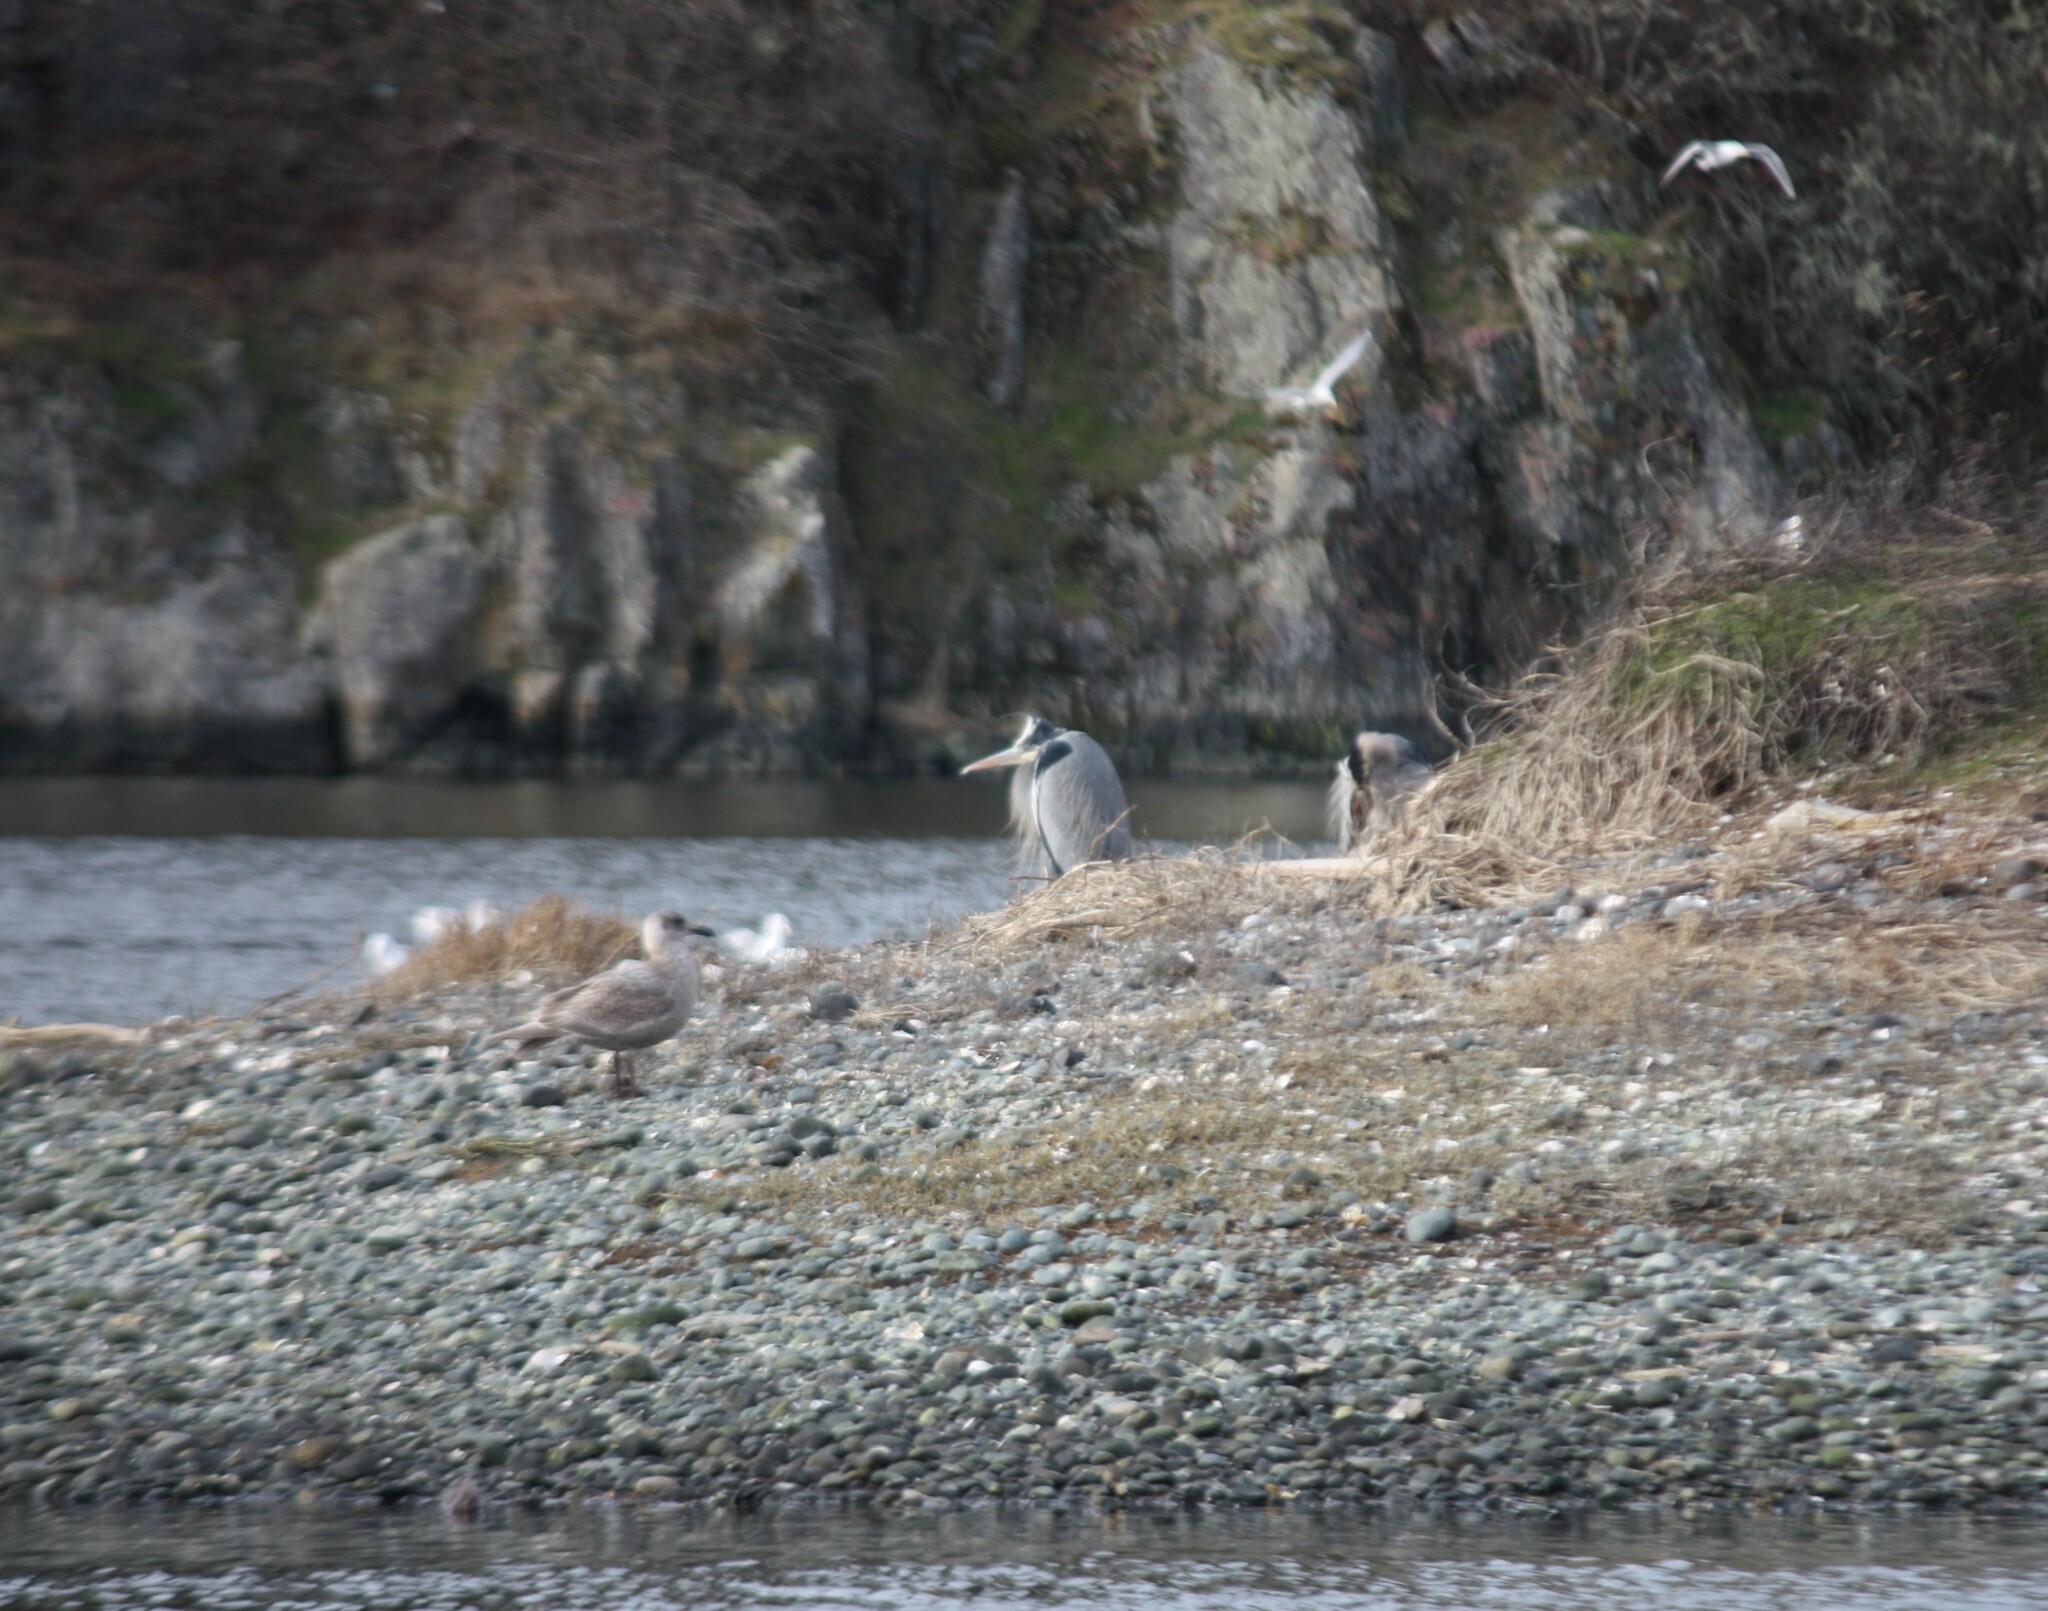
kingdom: Animalia
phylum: Chordata
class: Aves
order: Pelecaniformes
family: Ardeidae
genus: Ardea
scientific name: Ardea herodias
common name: Great blue heron
